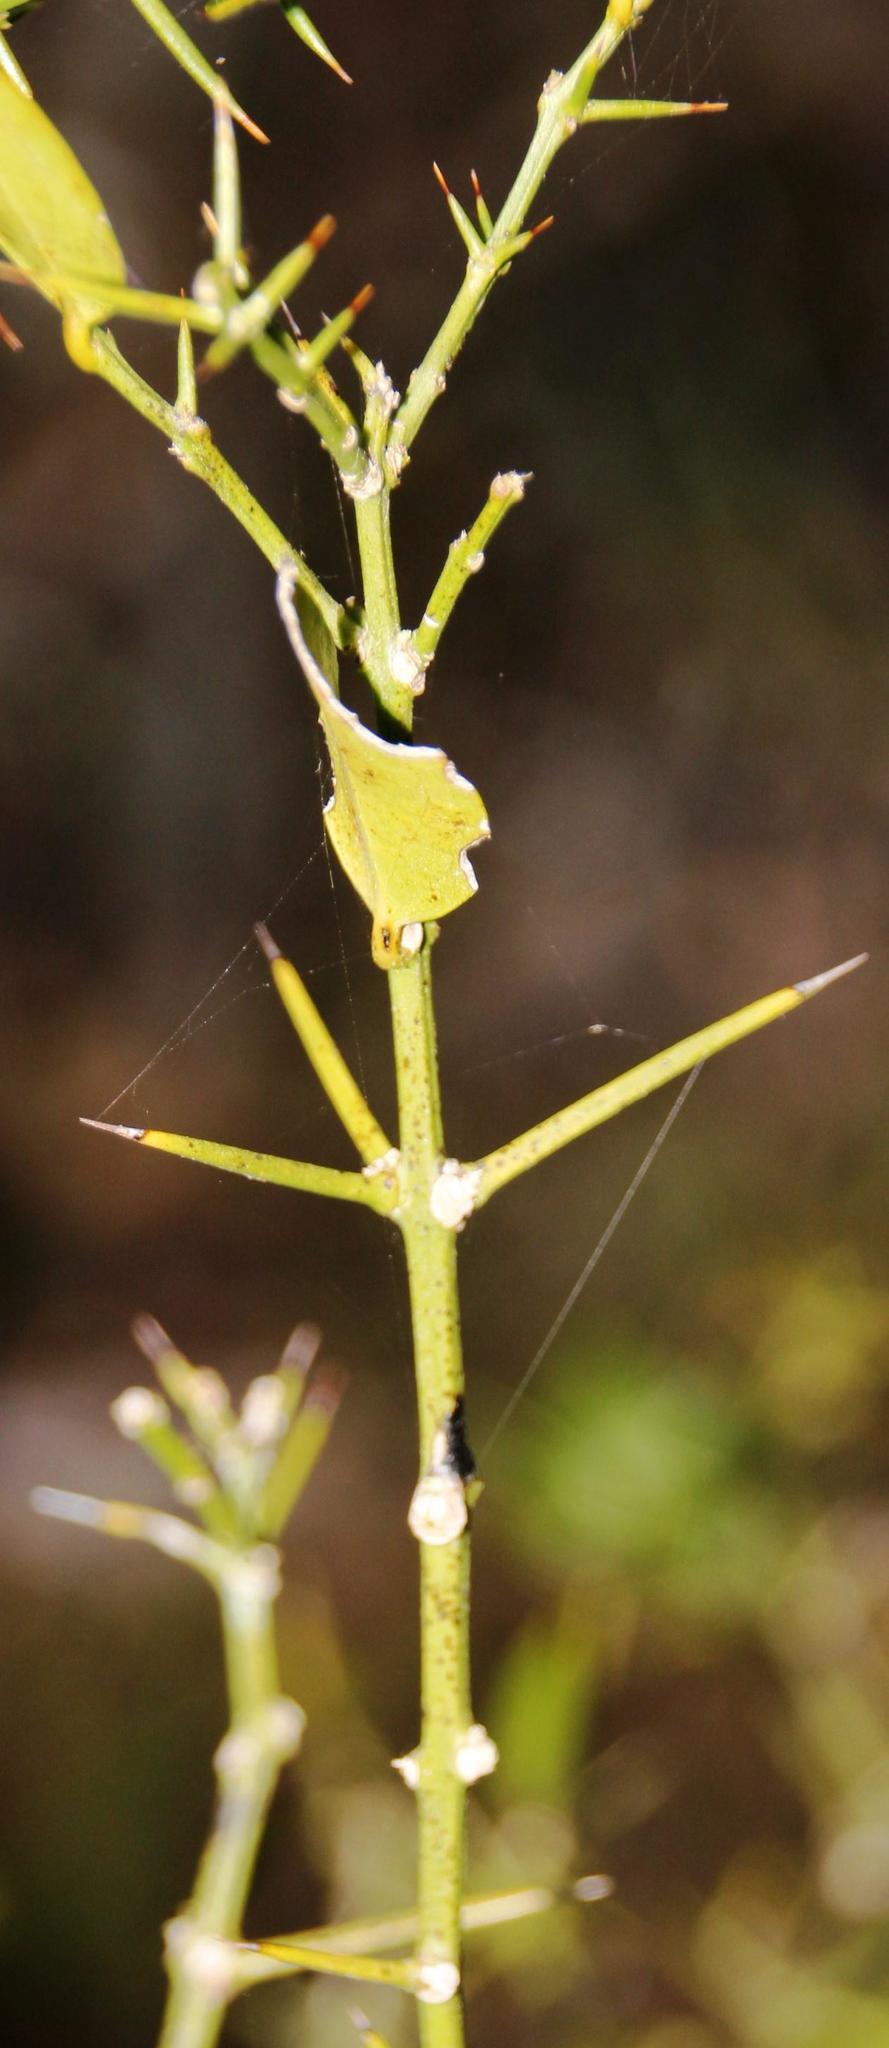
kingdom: Plantae
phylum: Tracheophyta
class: Magnoliopsida
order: Brassicales
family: Salvadoraceae
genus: Azima
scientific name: Azima tetracantha
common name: Needle bush
